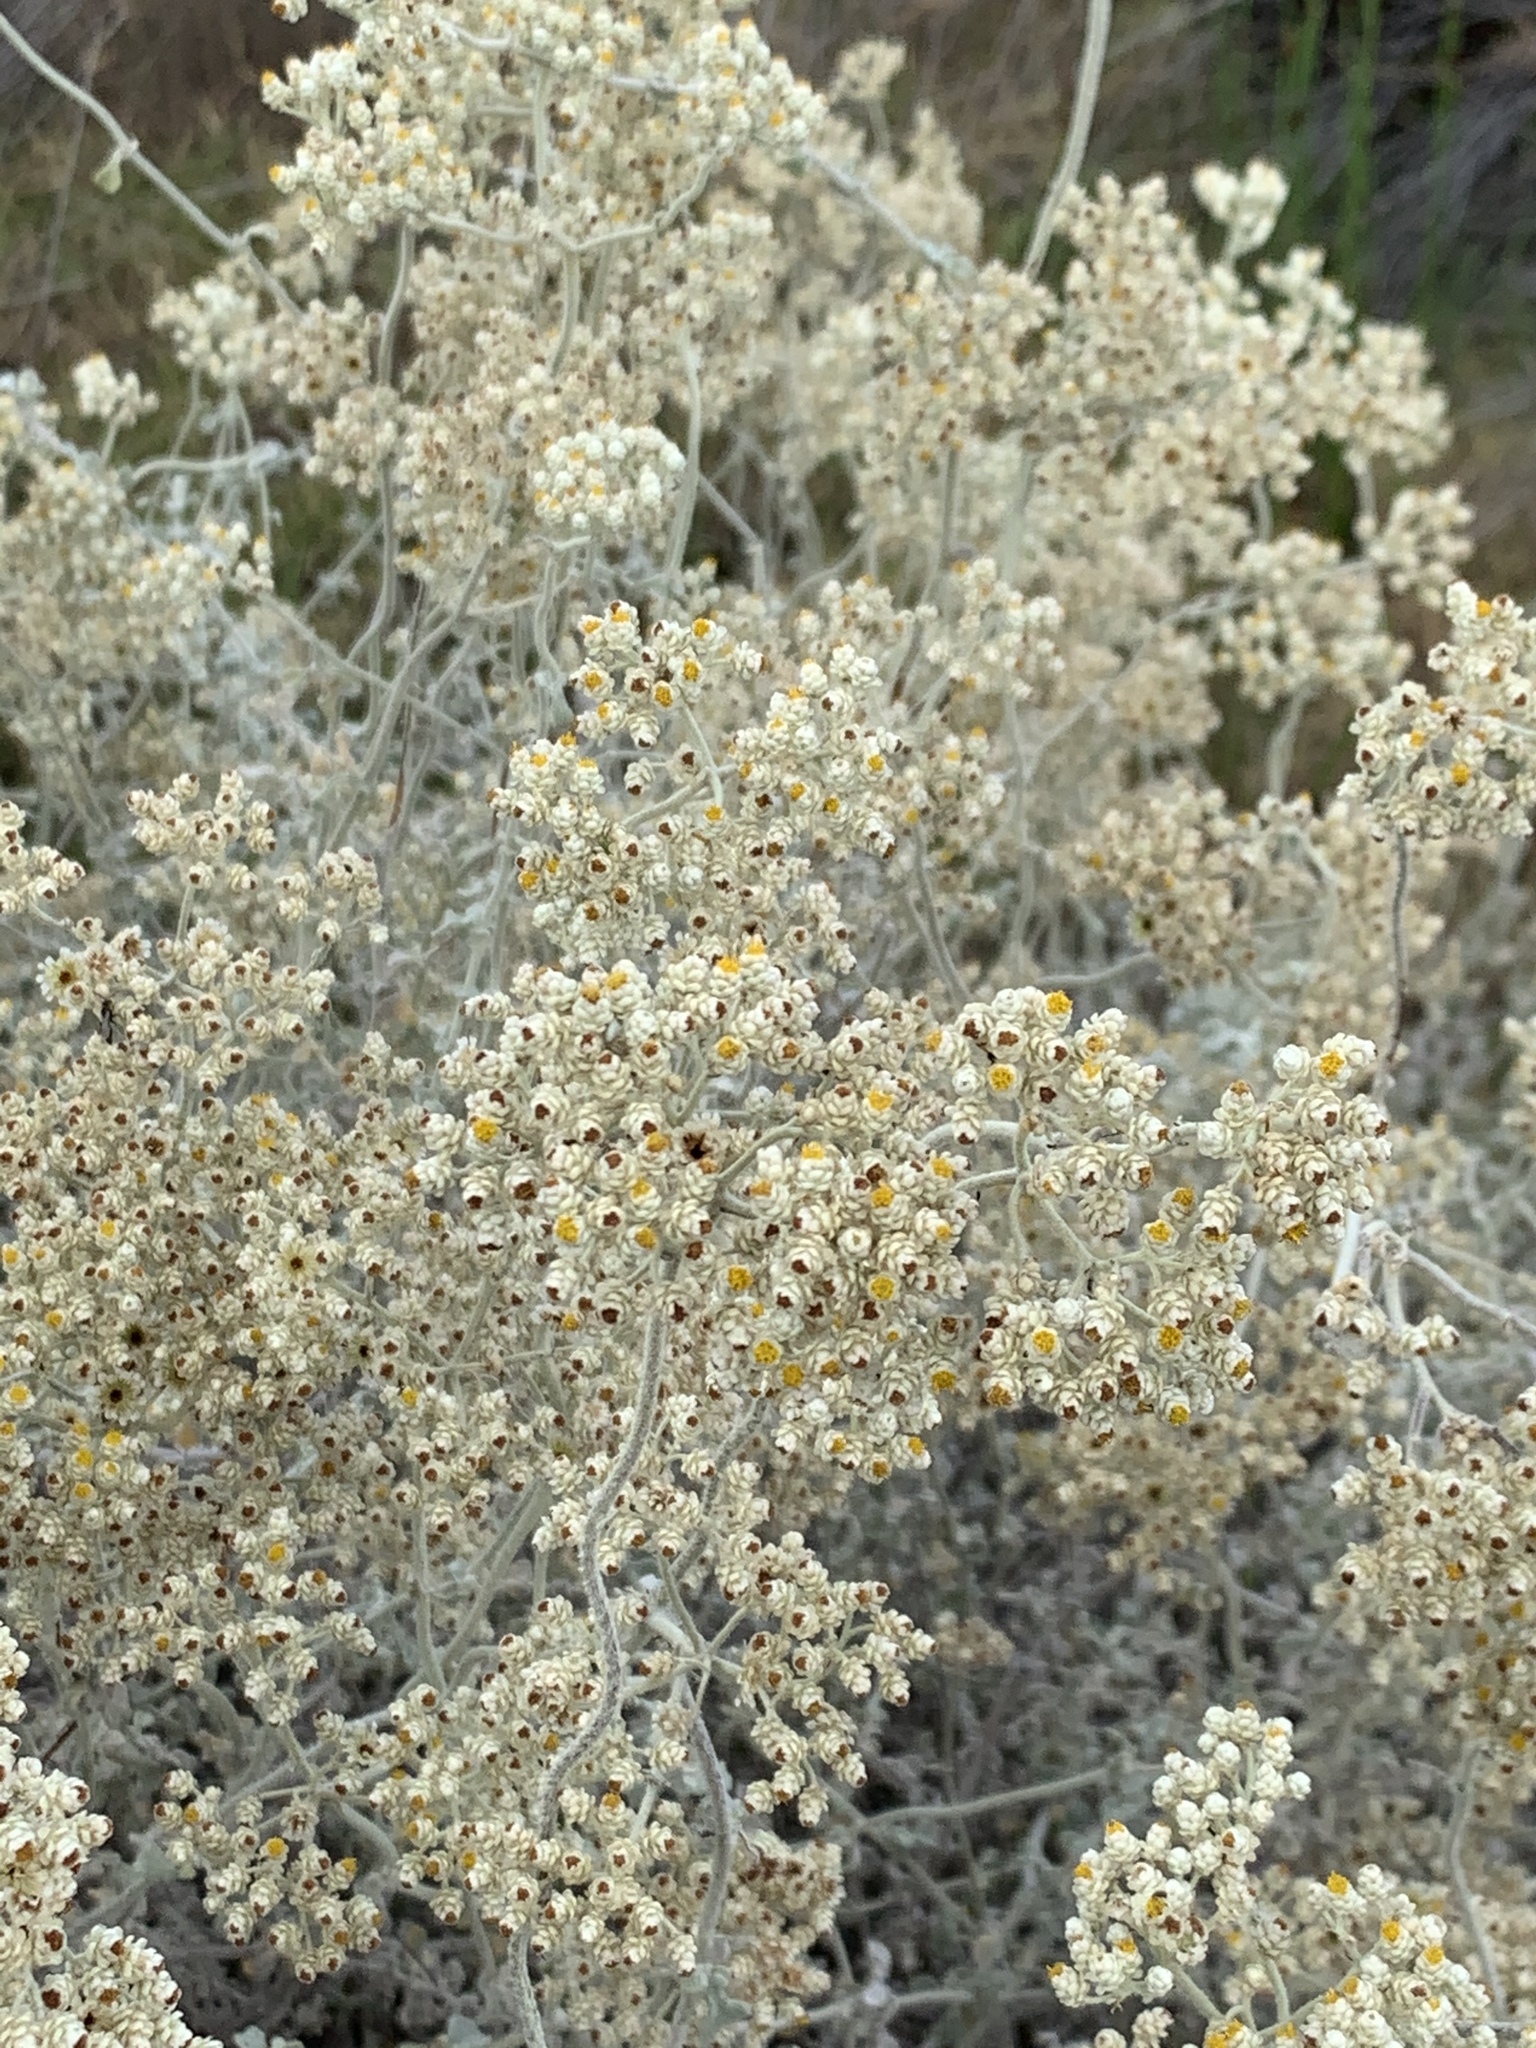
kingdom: Plantae
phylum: Tracheophyta
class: Magnoliopsida
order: Asterales
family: Asteraceae
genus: Helichrysum
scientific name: Helichrysum patulum
